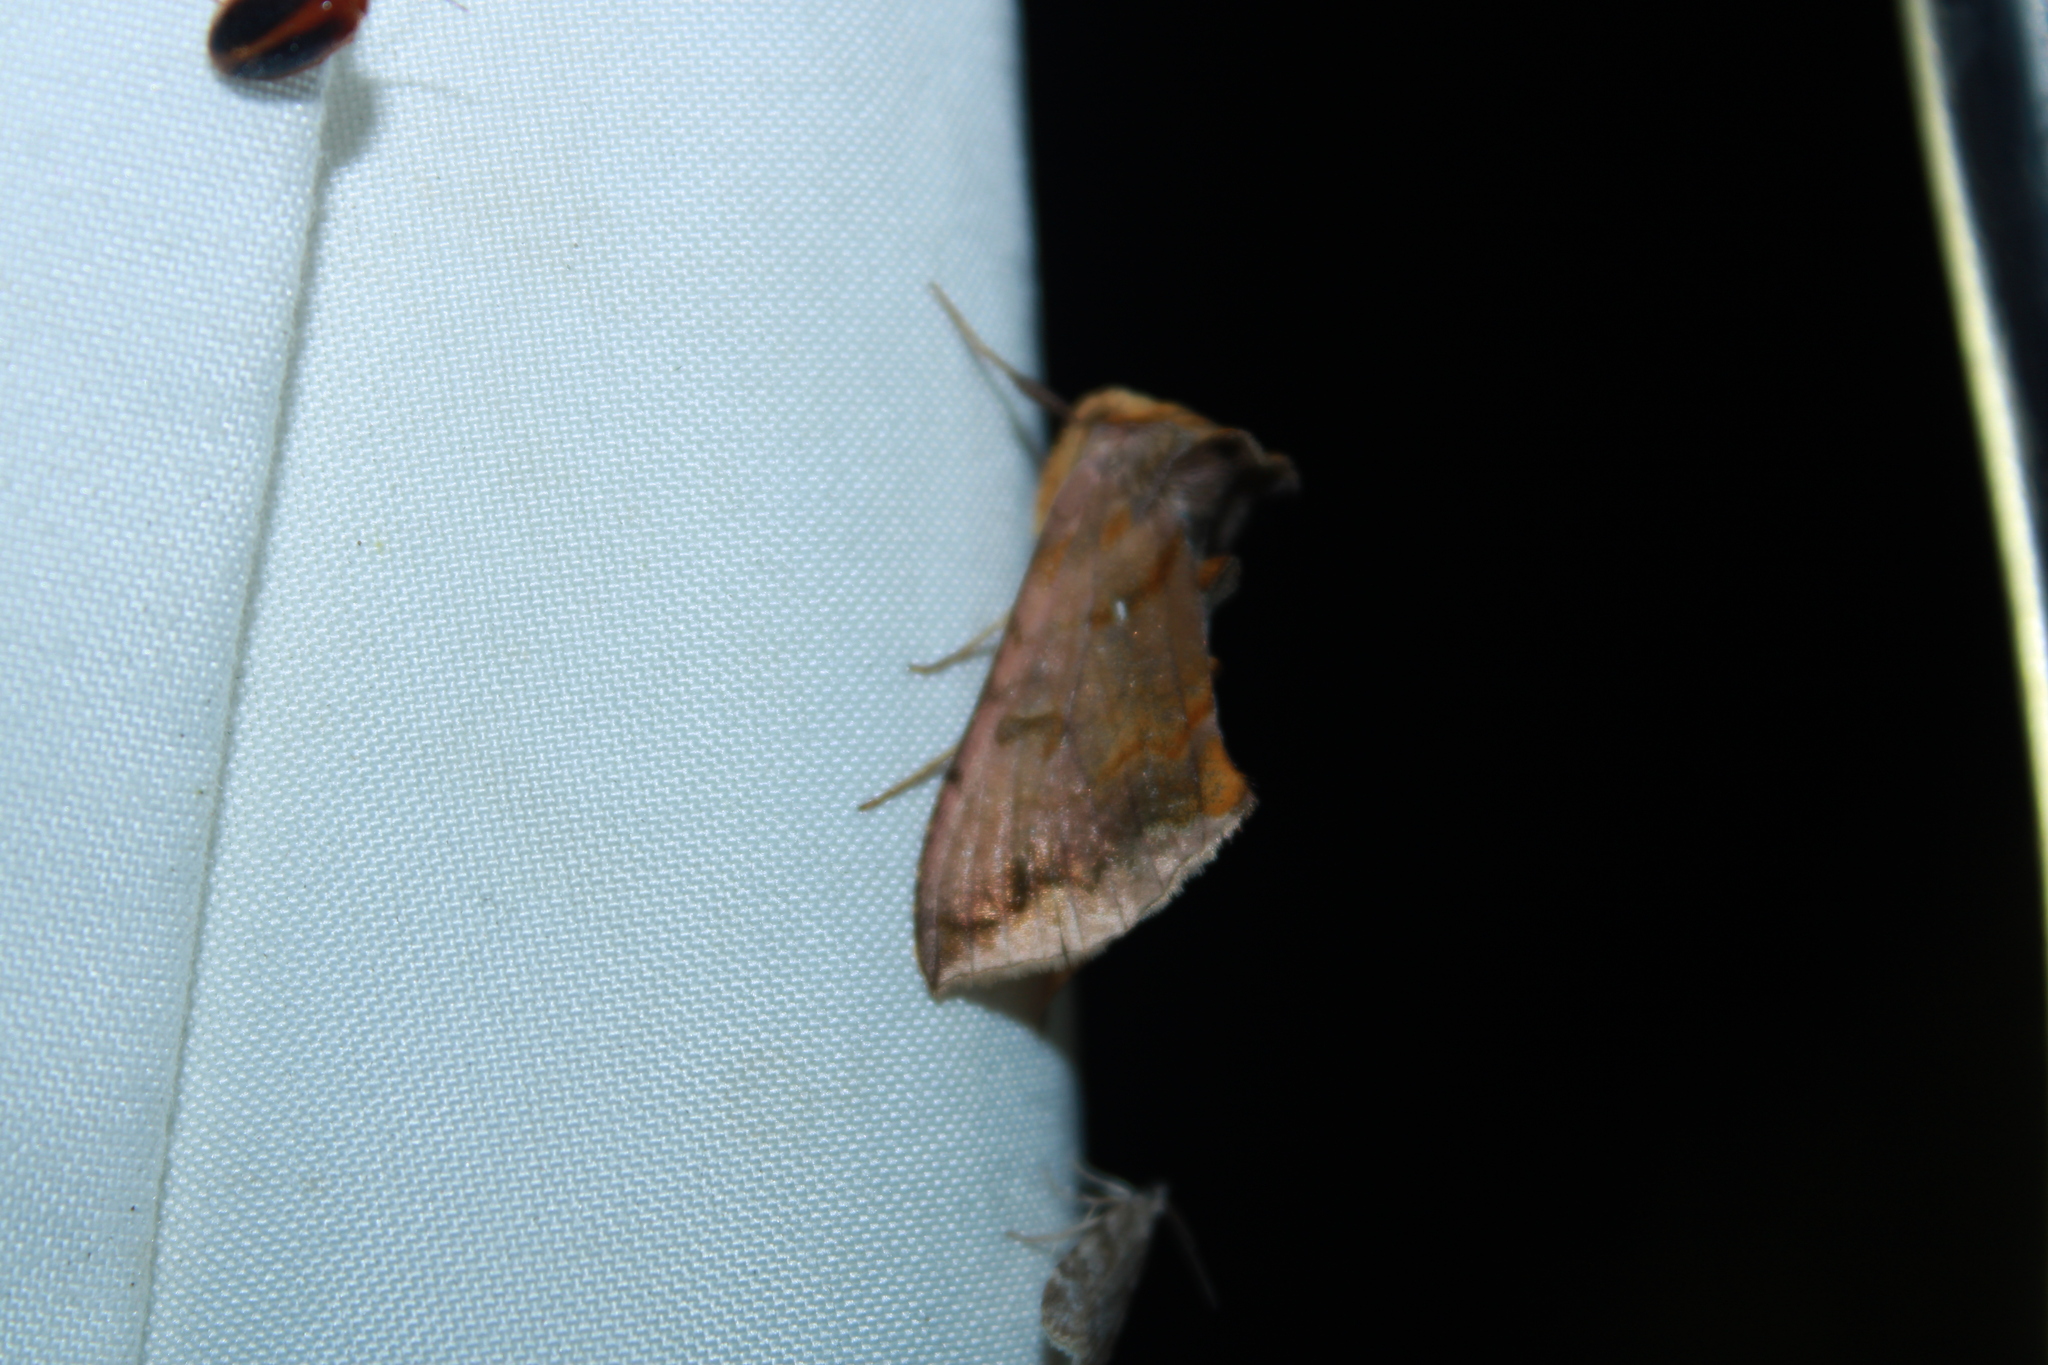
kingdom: Animalia
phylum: Arthropoda
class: Insecta
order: Lepidoptera
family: Noctuidae
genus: Allagrapha
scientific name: Allagrapha aerea
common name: Unspotted looper moth
